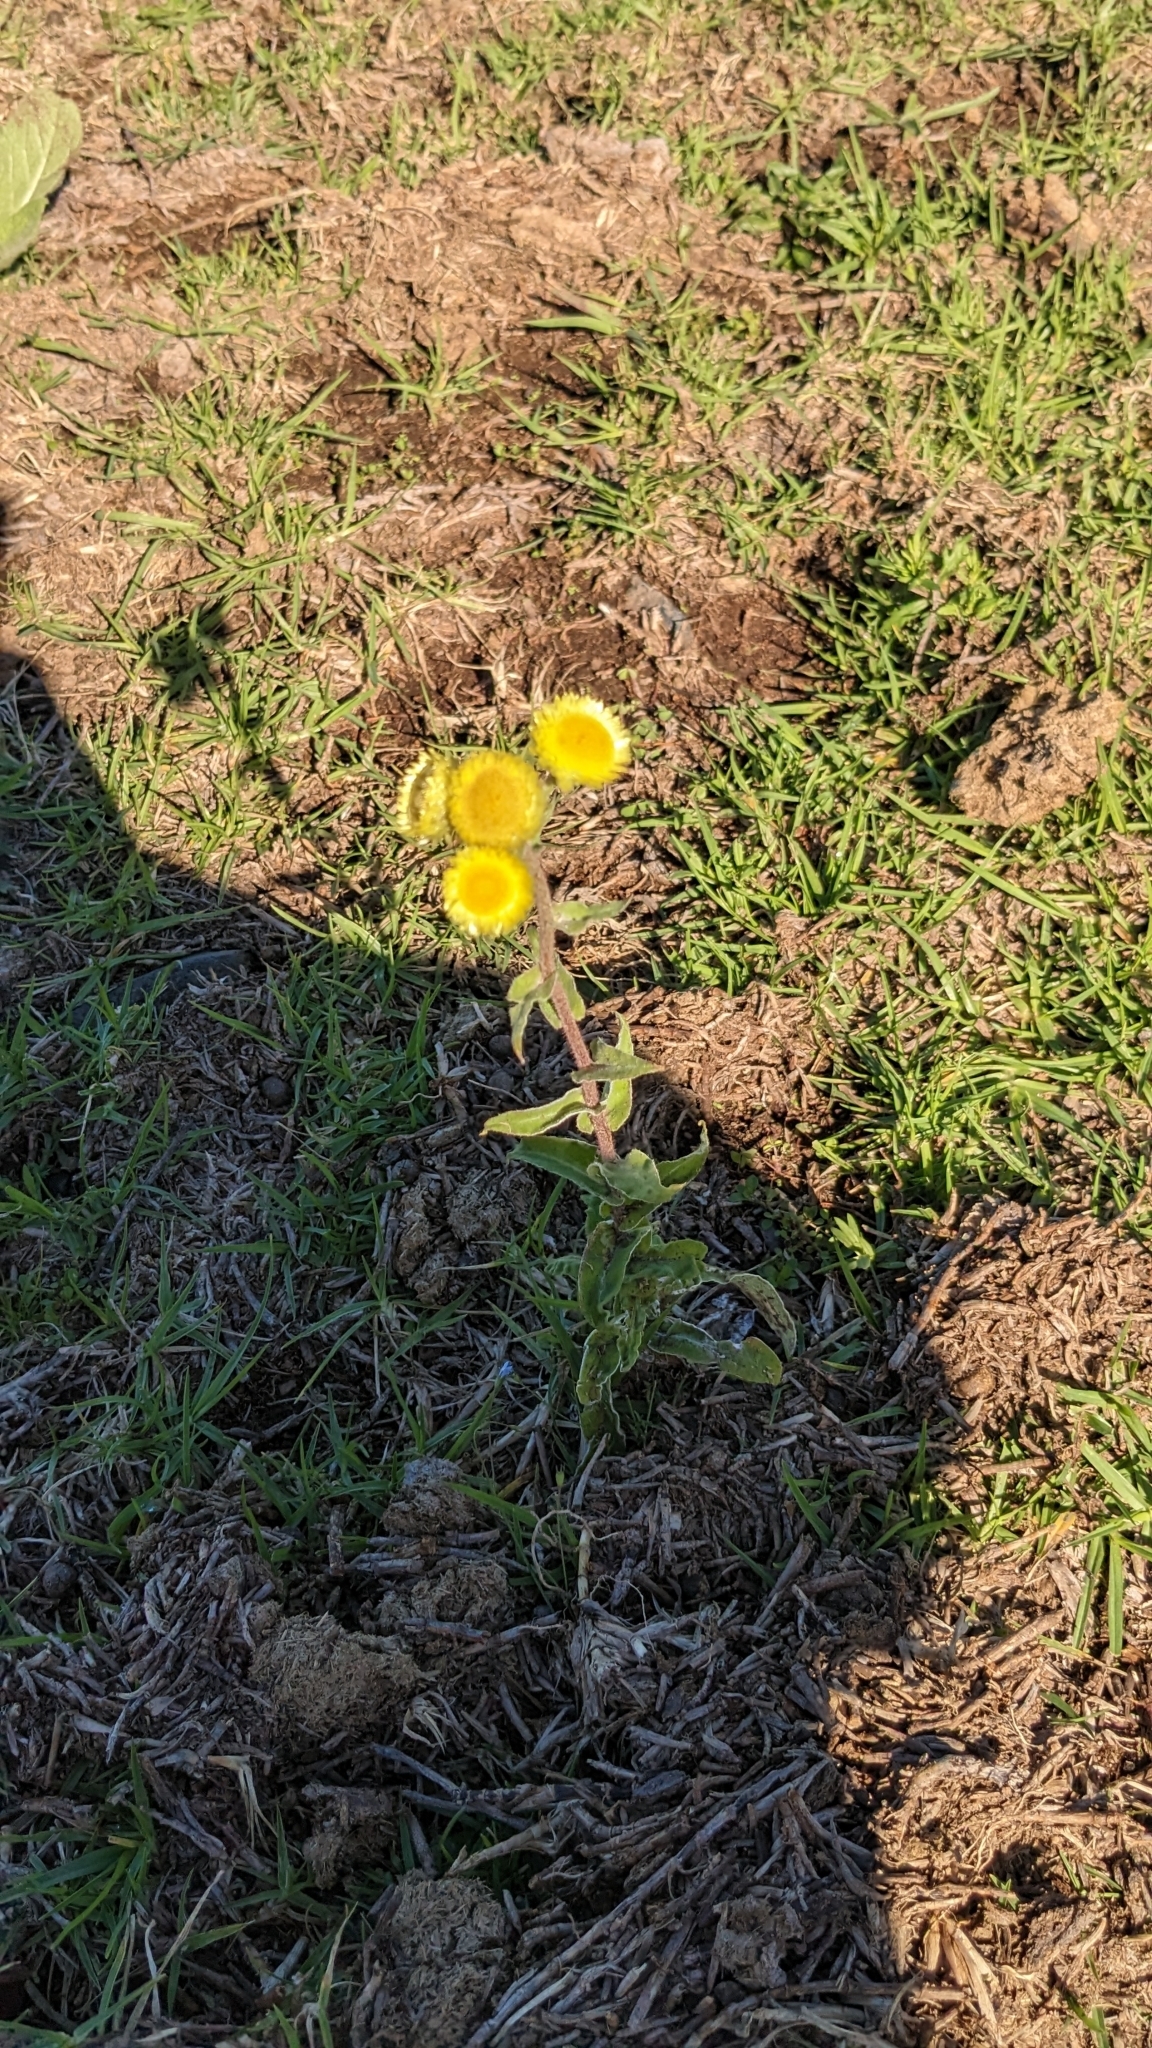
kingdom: Plantae
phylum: Tracheophyta
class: Magnoliopsida
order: Asterales
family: Asteraceae
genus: Helichrysum
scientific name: Helichrysum foetidum
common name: Stinking everlasting
